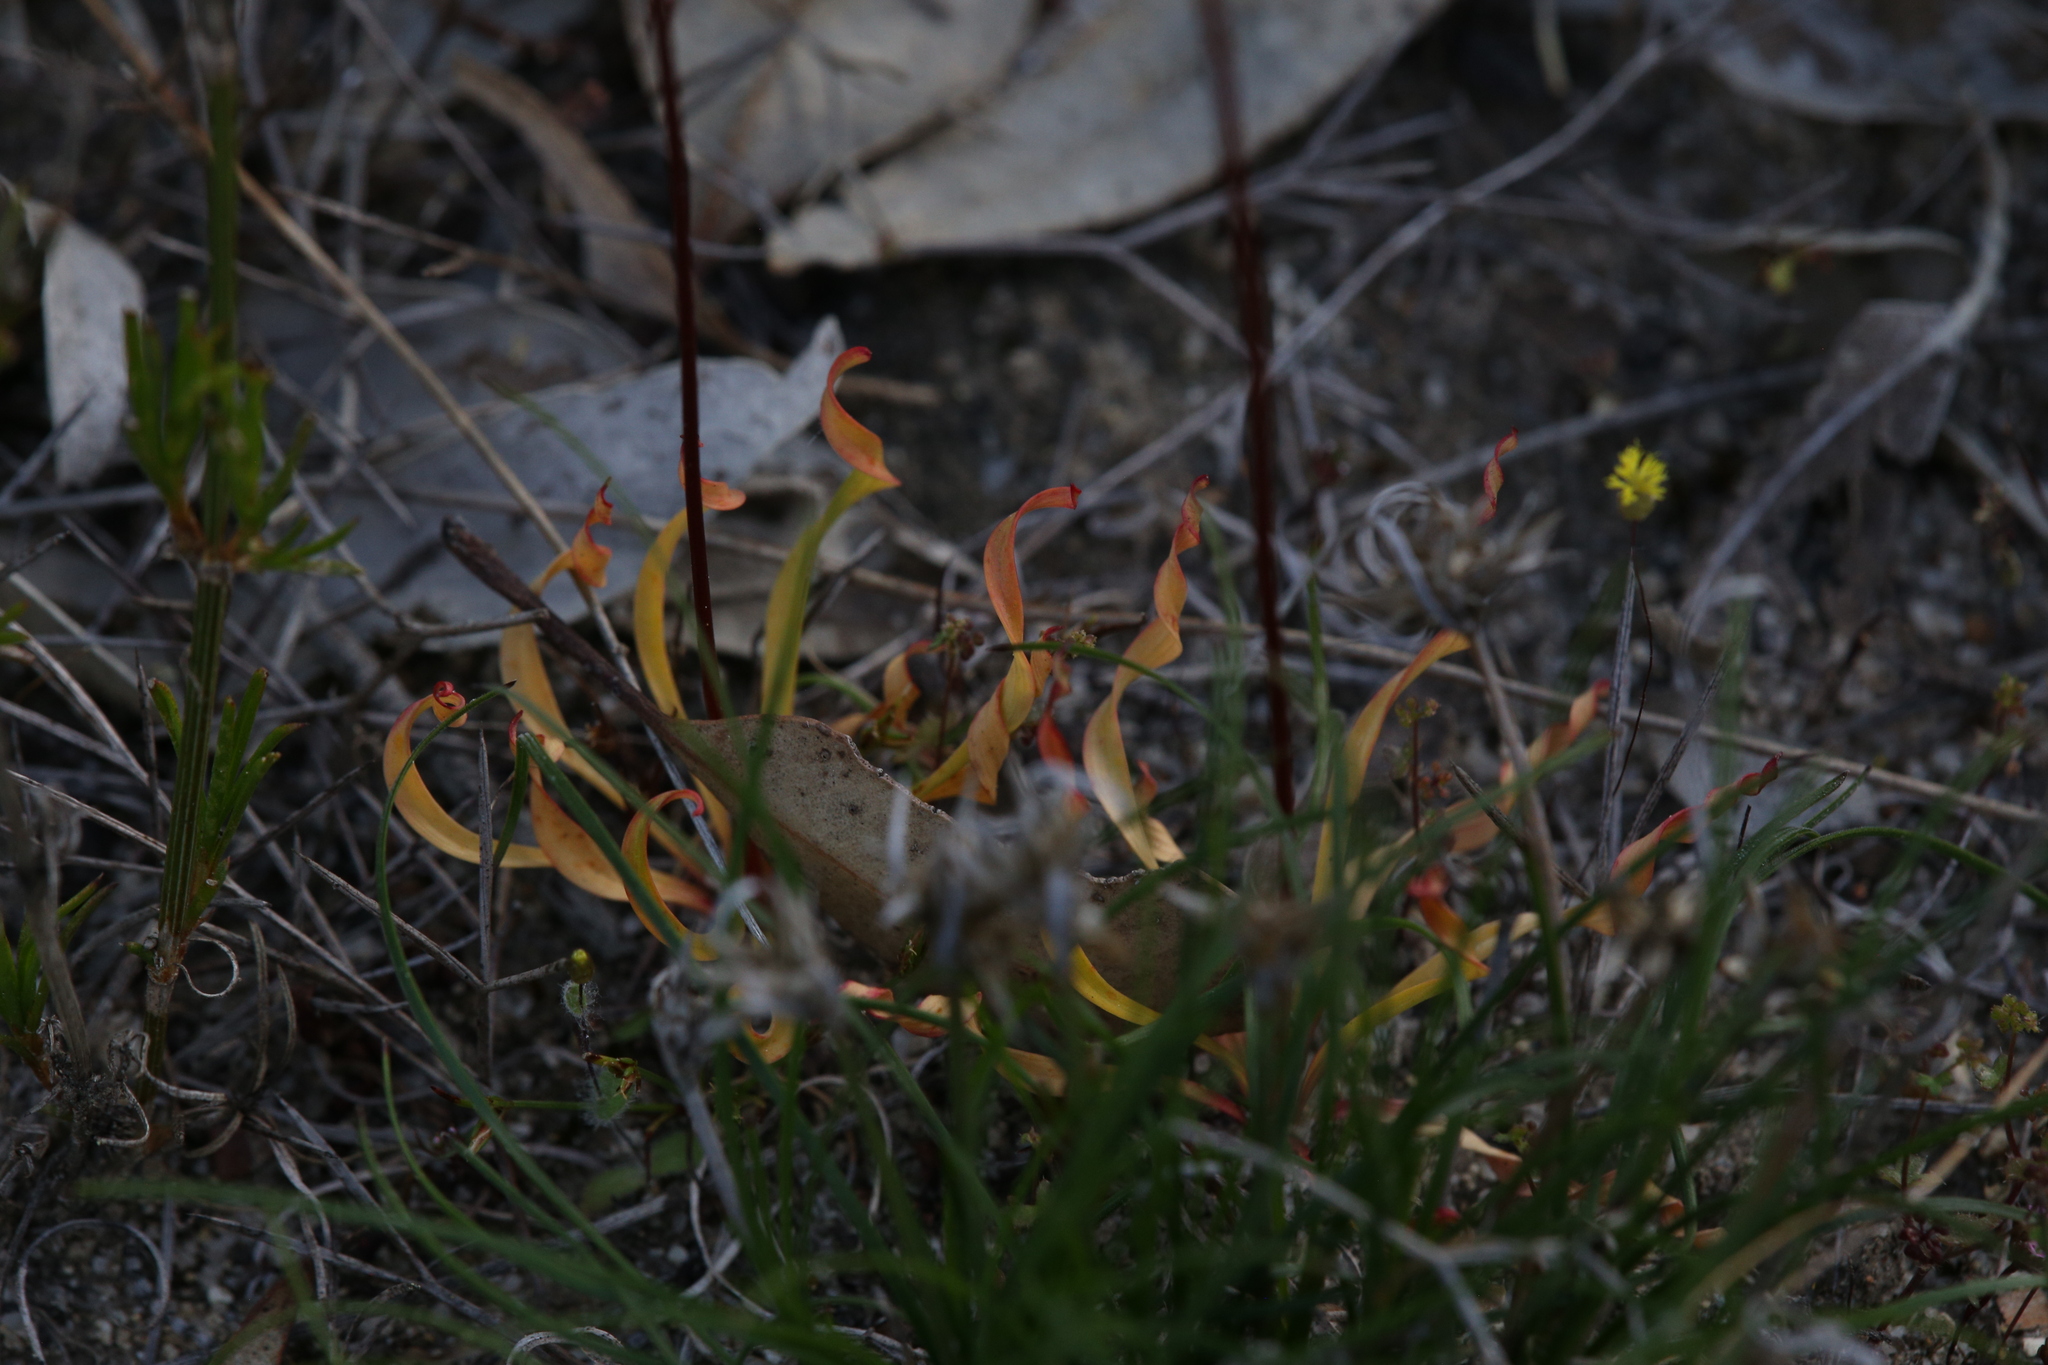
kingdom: Plantae
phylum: Tracheophyta
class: Liliopsida
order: Asparagales
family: Asphodelaceae
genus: Chamaescilla
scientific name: Chamaescilla spiralis
